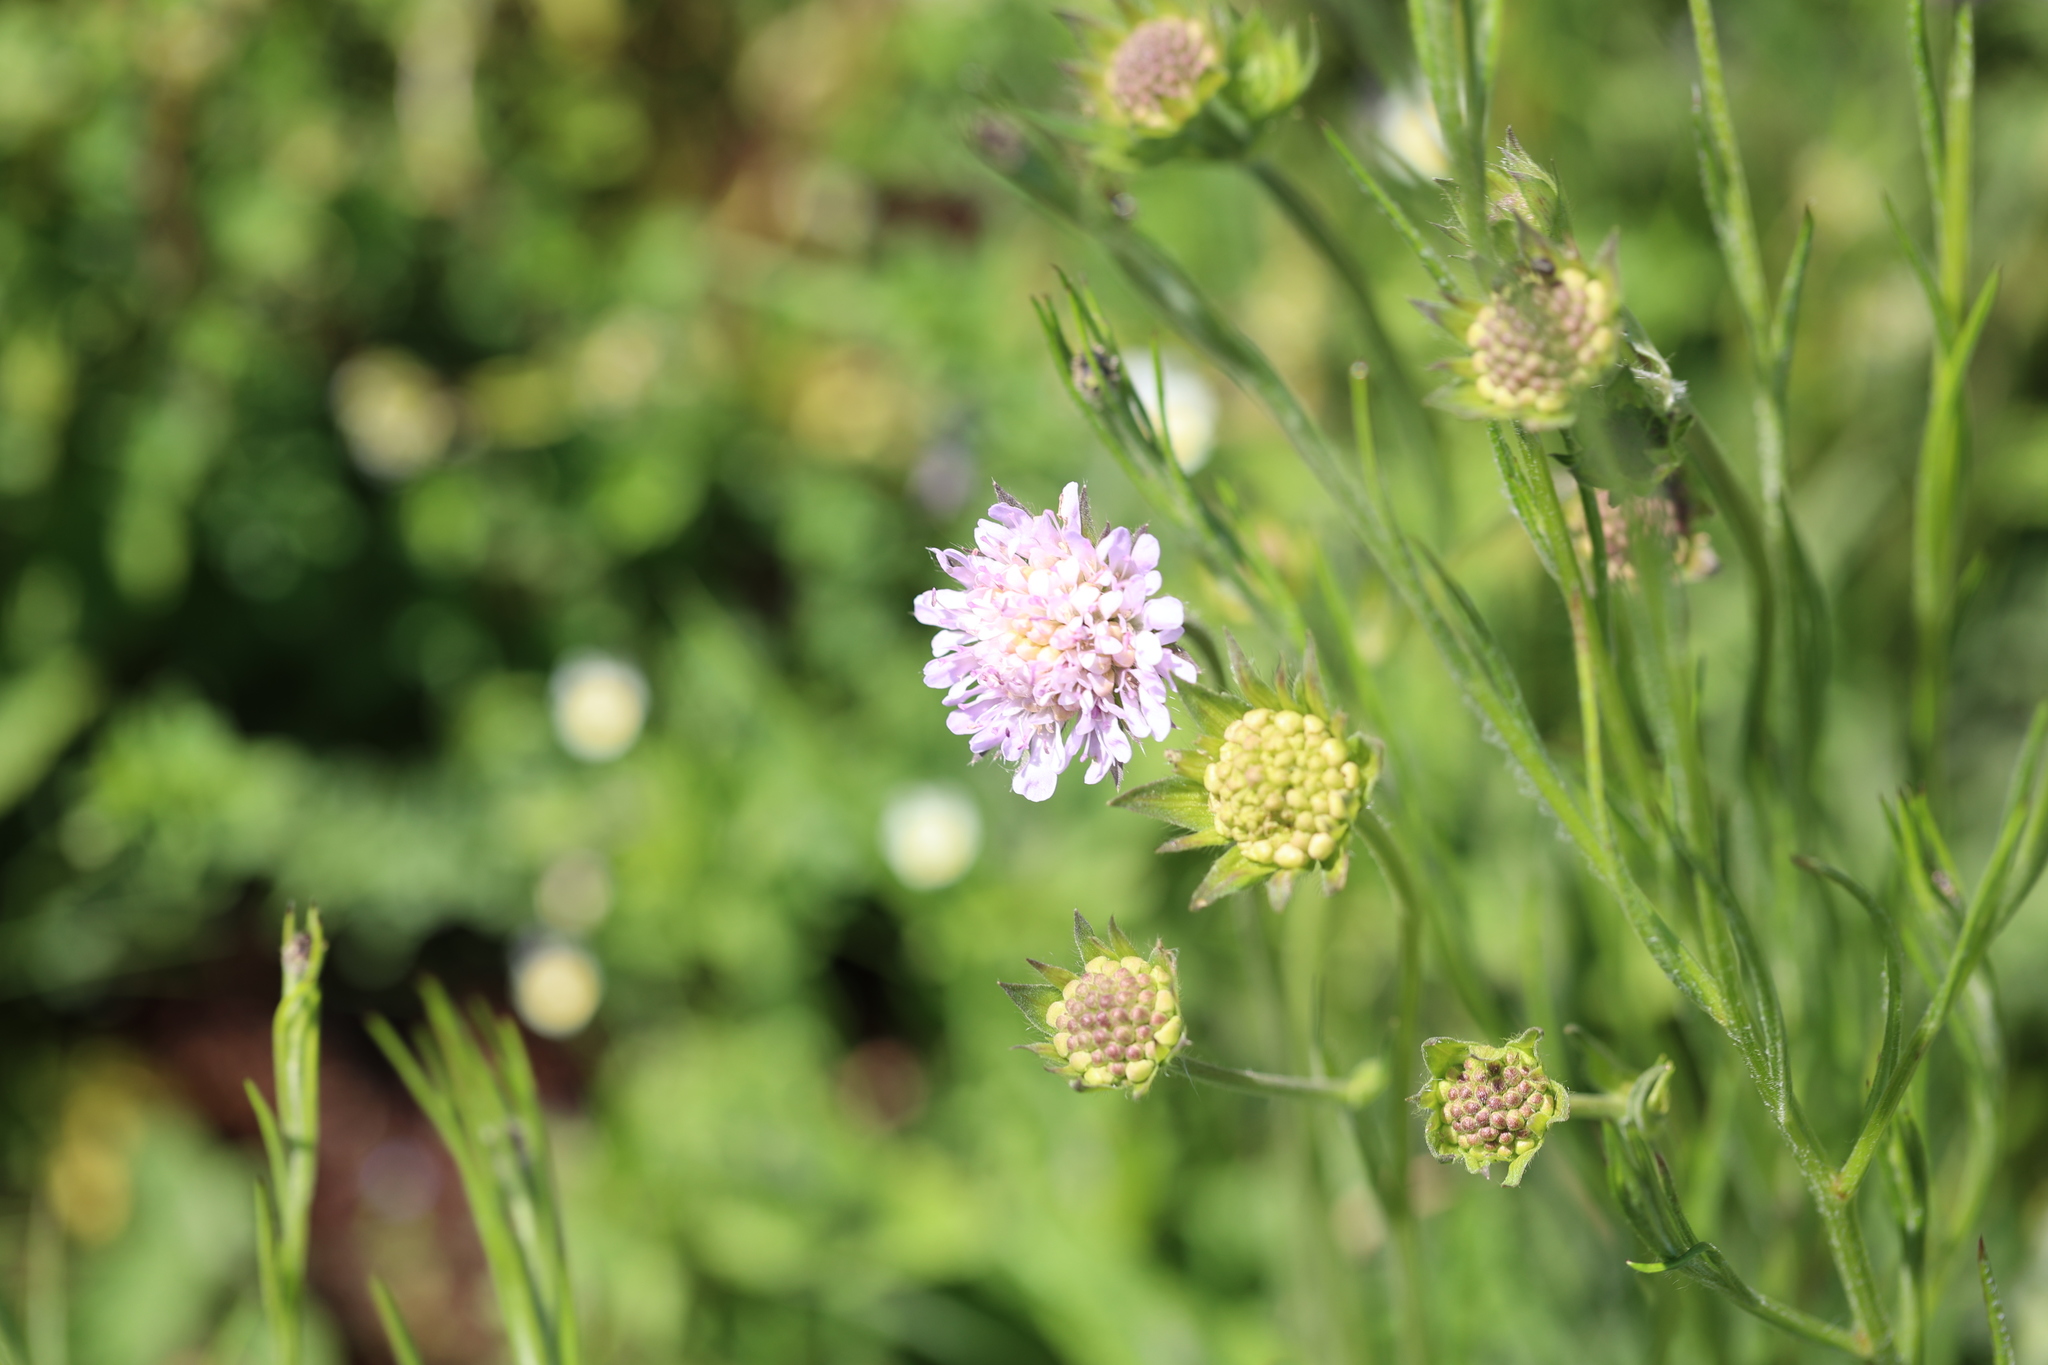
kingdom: Plantae
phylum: Tracheophyta
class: Magnoliopsida
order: Dipsacales
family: Caprifoliaceae
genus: Knautia
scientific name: Knautia arvensis
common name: Field scabiosa
